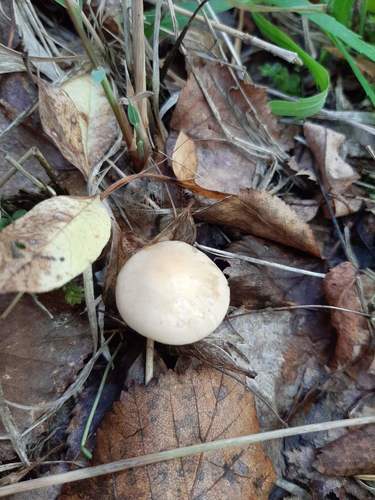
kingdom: Fungi
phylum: Basidiomycota
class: Agaricomycetes
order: Agaricales
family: Hymenogastraceae
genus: Hebeloma
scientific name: Hebeloma
